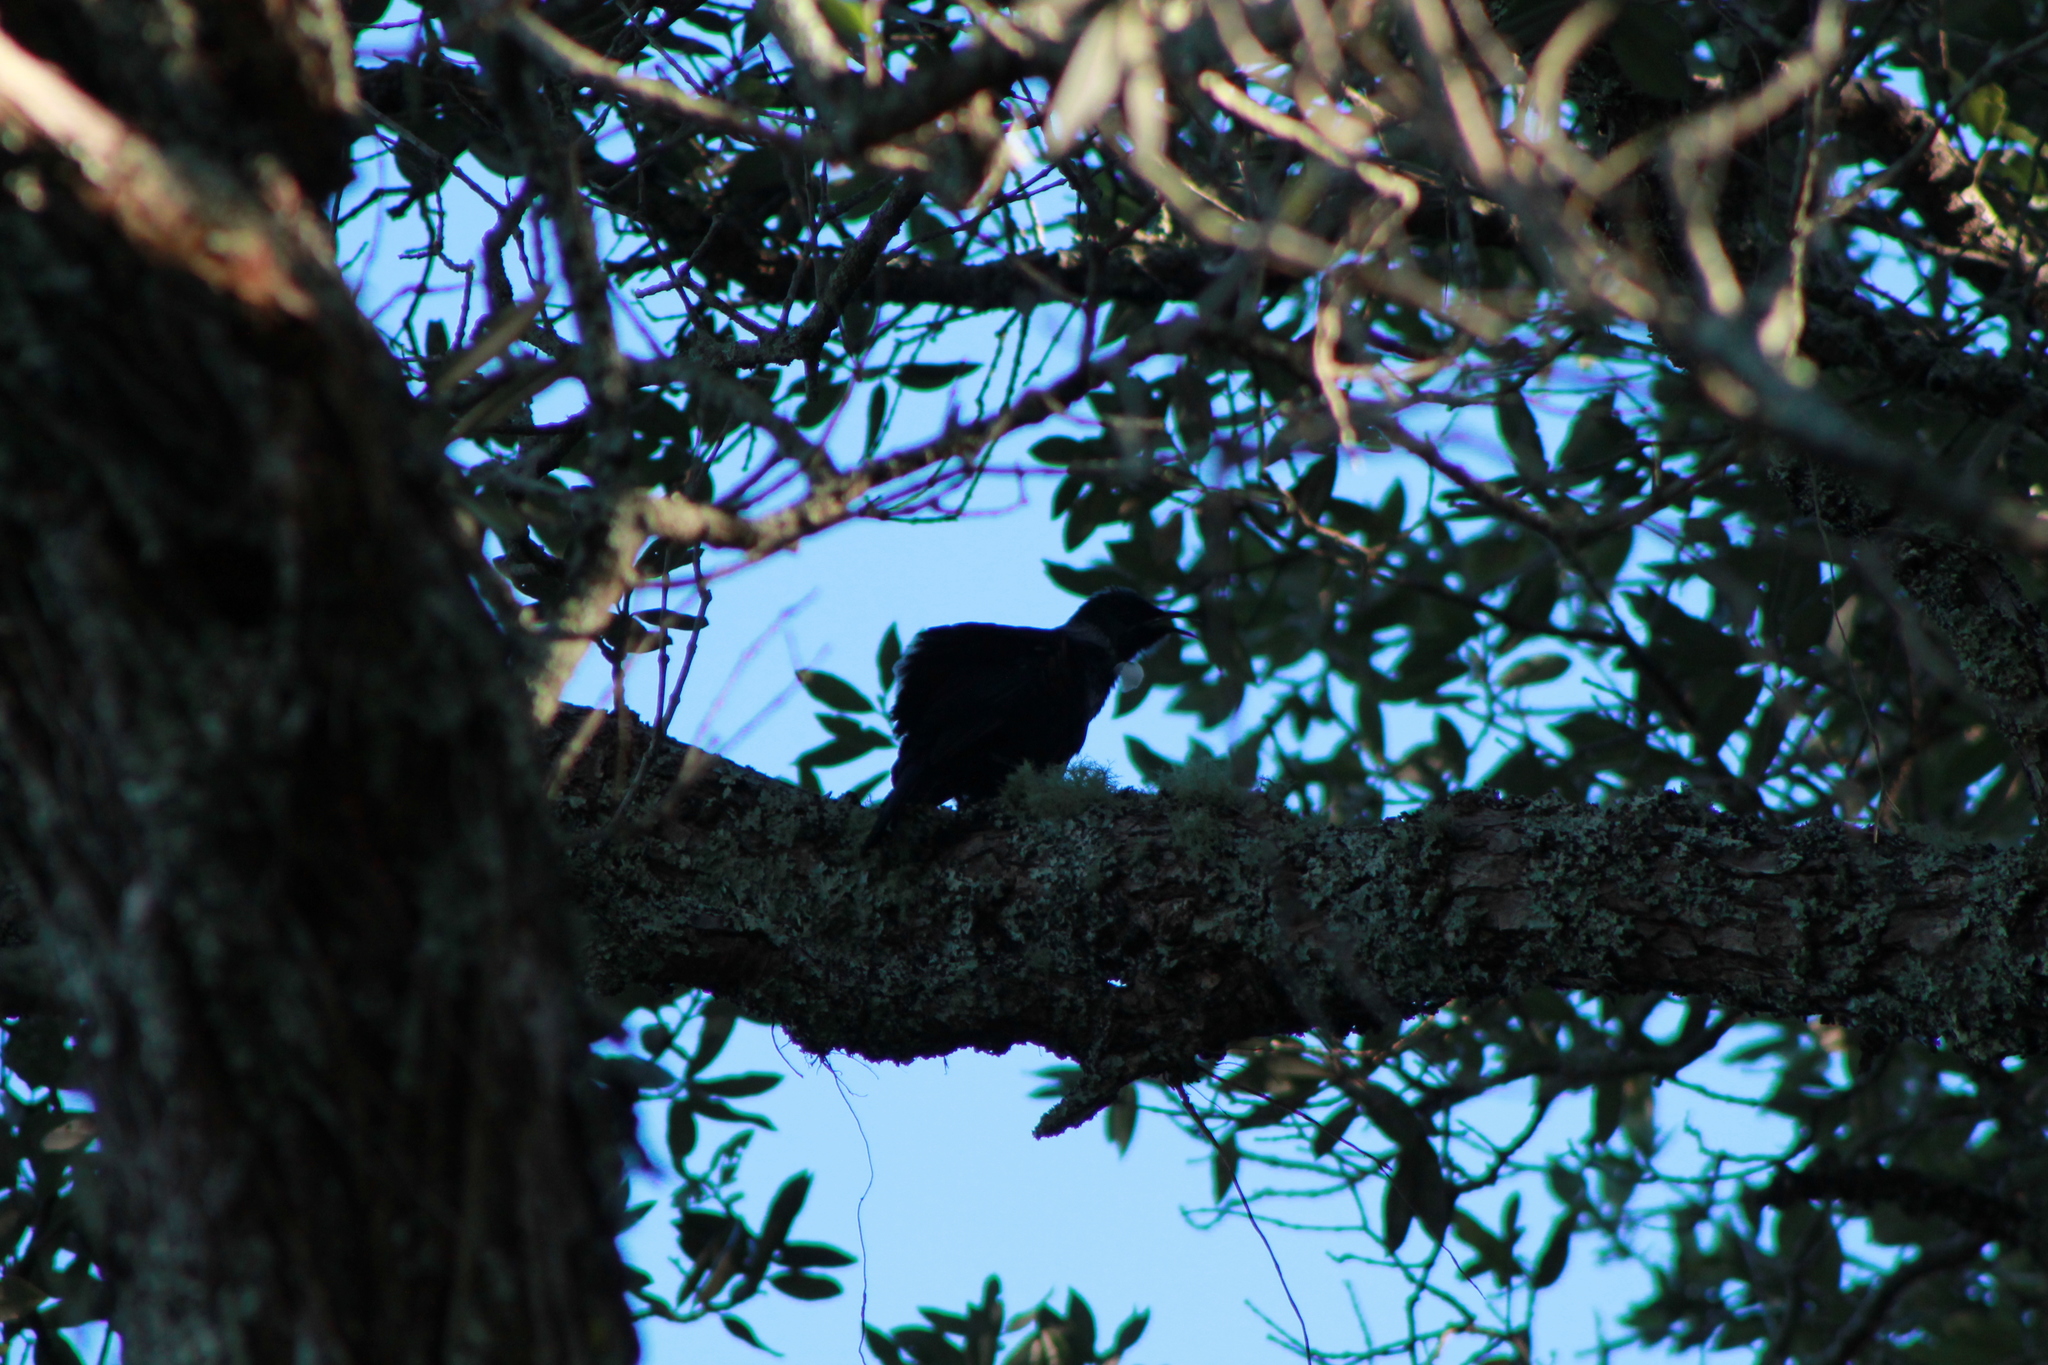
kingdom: Animalia
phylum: Chordata
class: Aves
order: Passeriformes
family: Meliphagidae
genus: Prosthemadera
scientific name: Prosthemadera novaeseelandiae
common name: Tui
